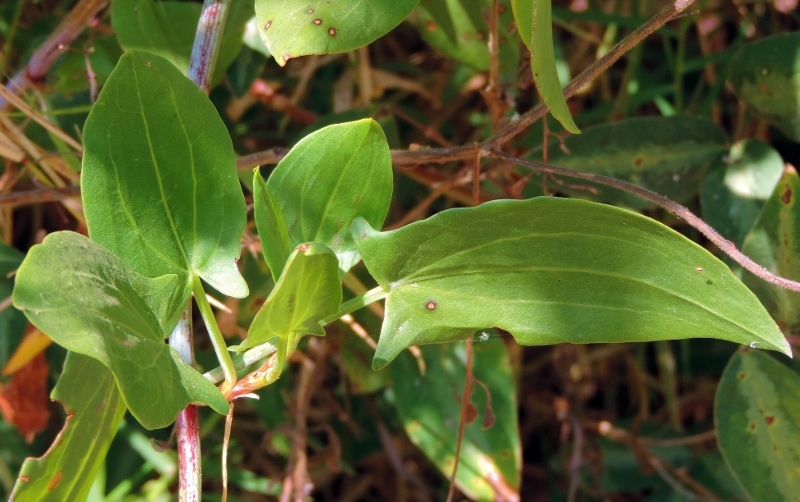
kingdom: Plantae
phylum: Tracheophyta
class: Magnoliopsida
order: Caryophyllales
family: Polygonaceae
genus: Rumex
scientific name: Rumex usambarensis
